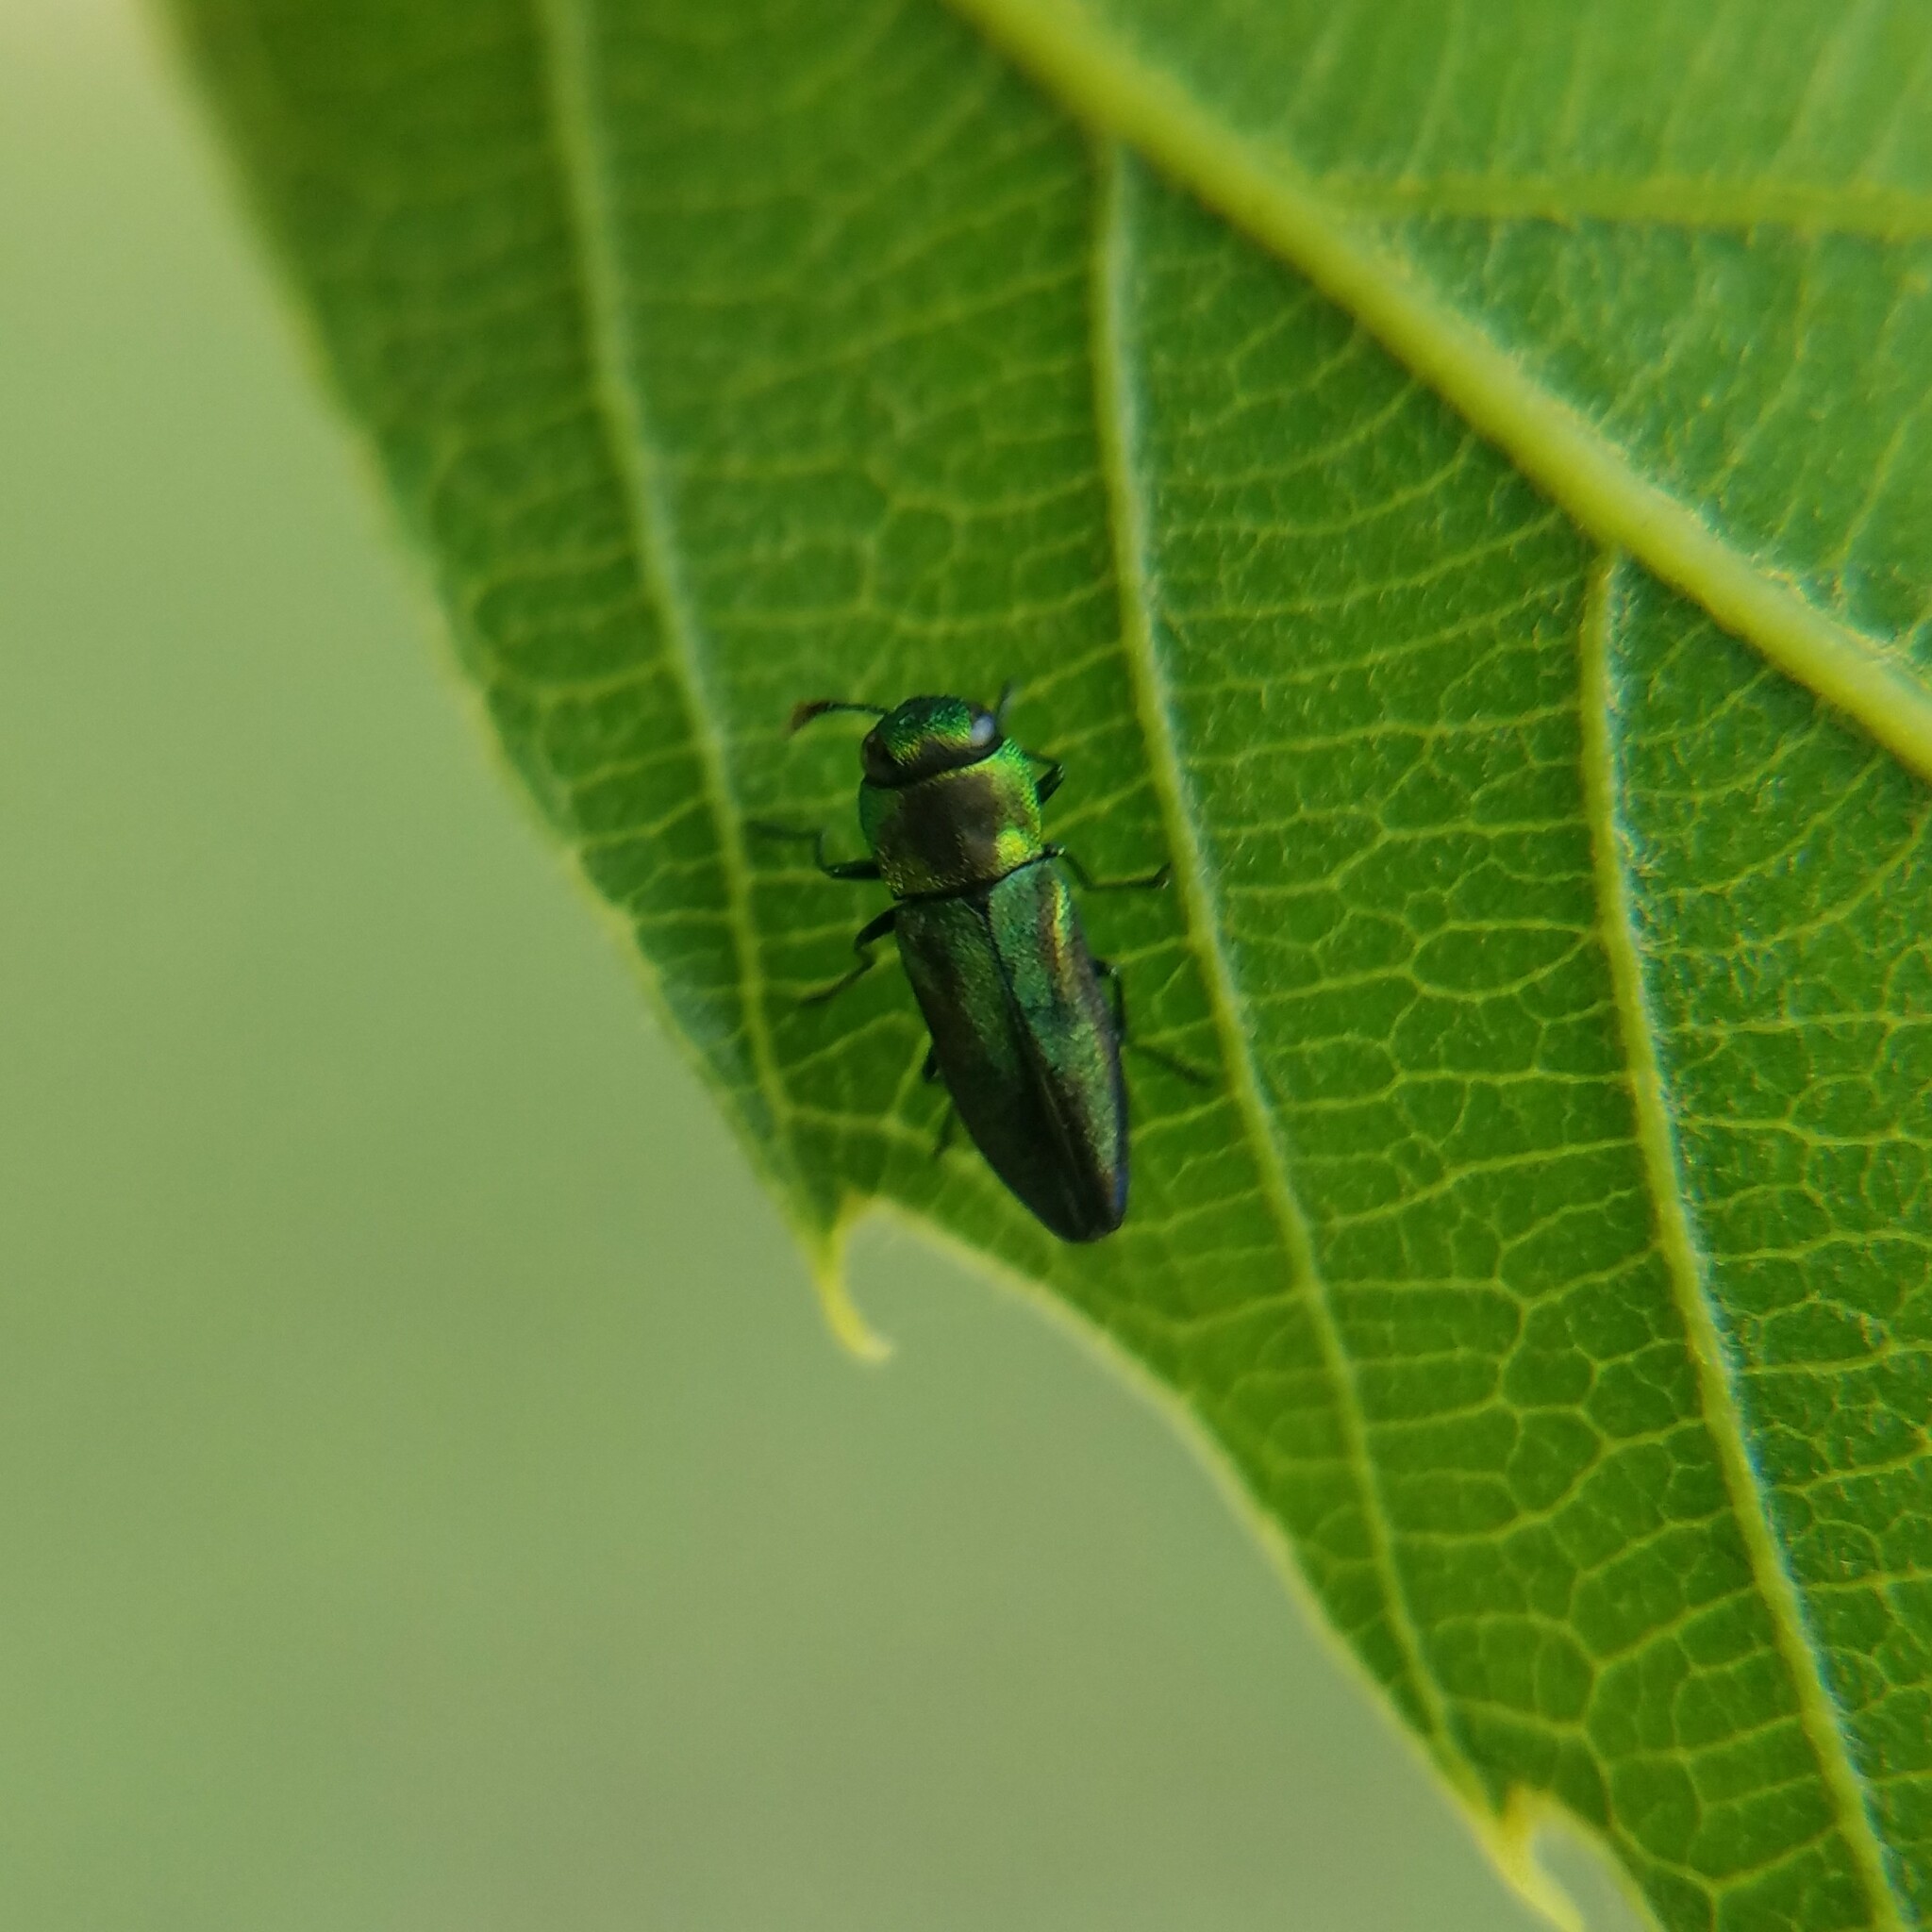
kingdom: Animalia
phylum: Arthropoda
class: Insecta
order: Coleoptera
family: Buprestidae
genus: Anthaxia
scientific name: Anthaxia quercata
